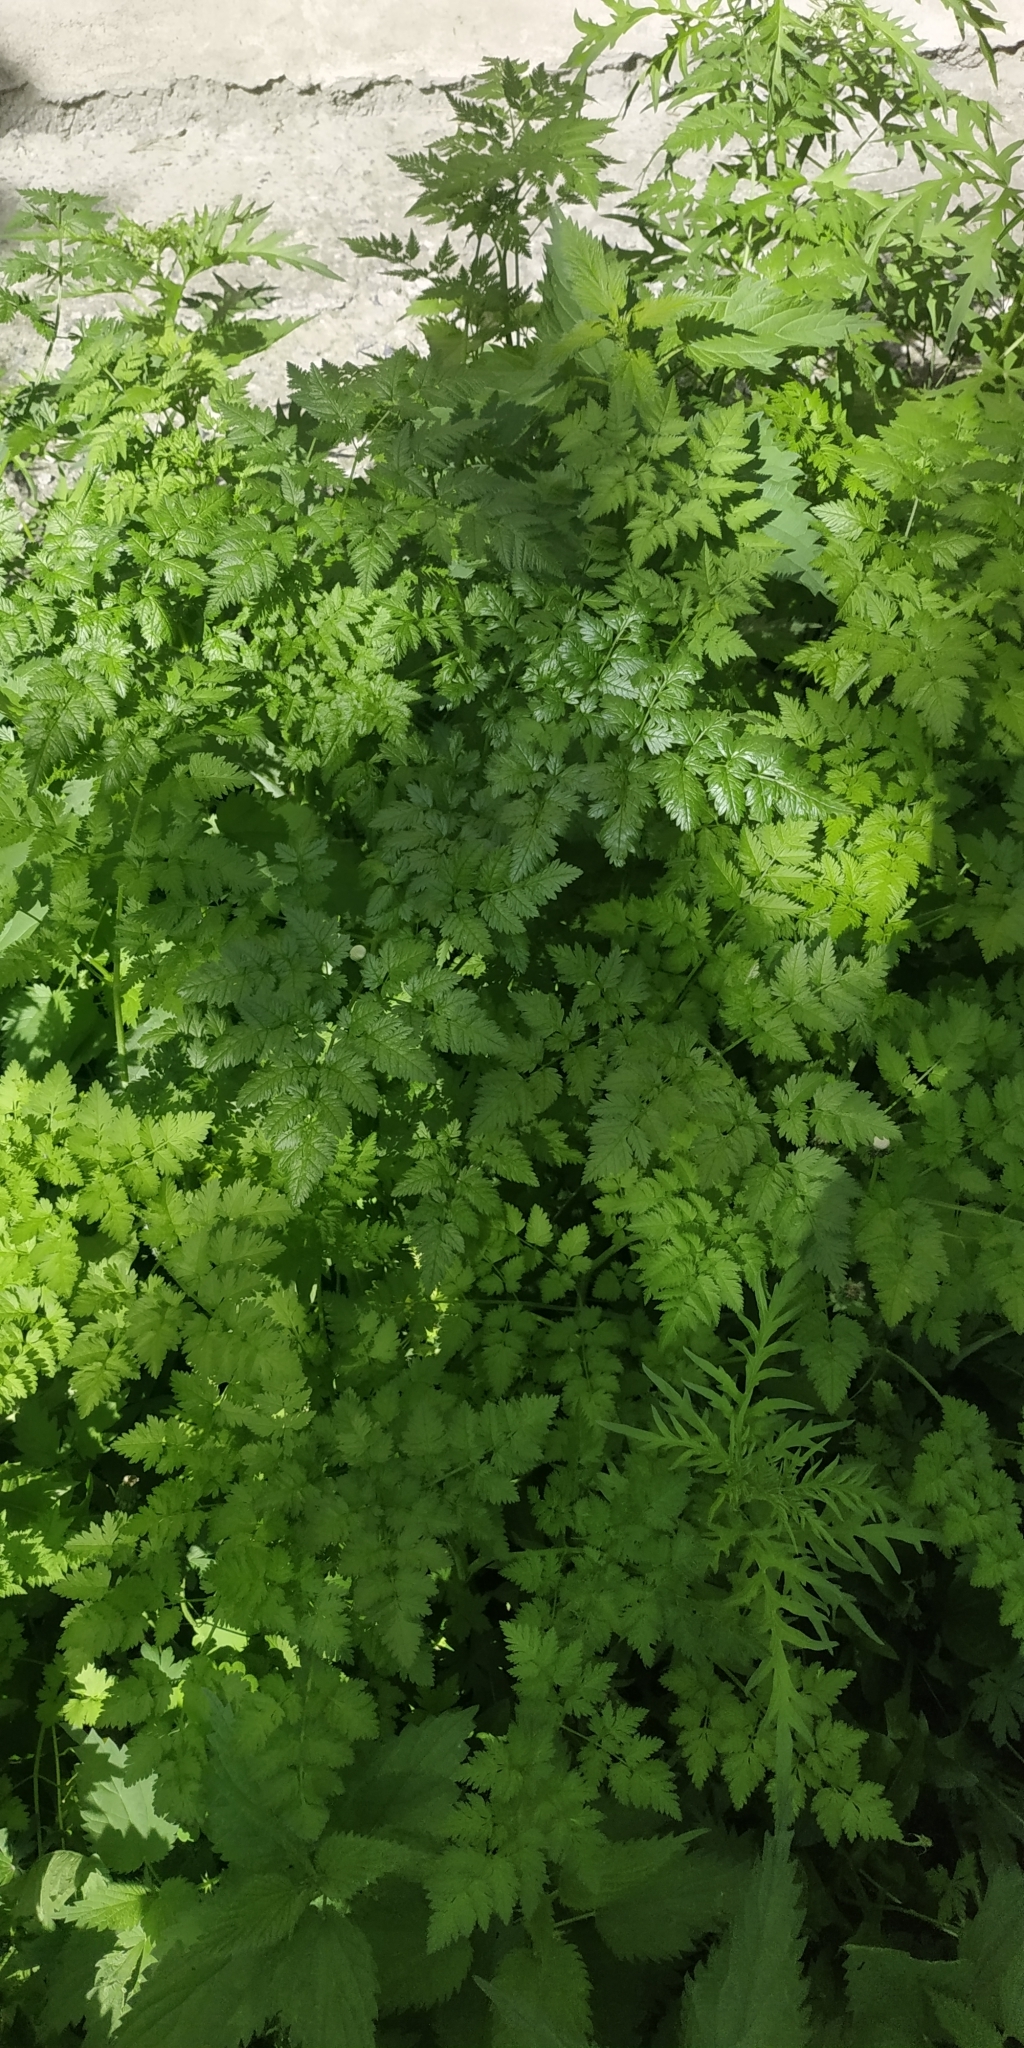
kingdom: Plantae
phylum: Tracheophyta
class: Magnoliopsida
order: Apiales
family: Apiaceae
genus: Chaerophyllum
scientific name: Chaerophyllum bulbosum
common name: Bulbous chervil
